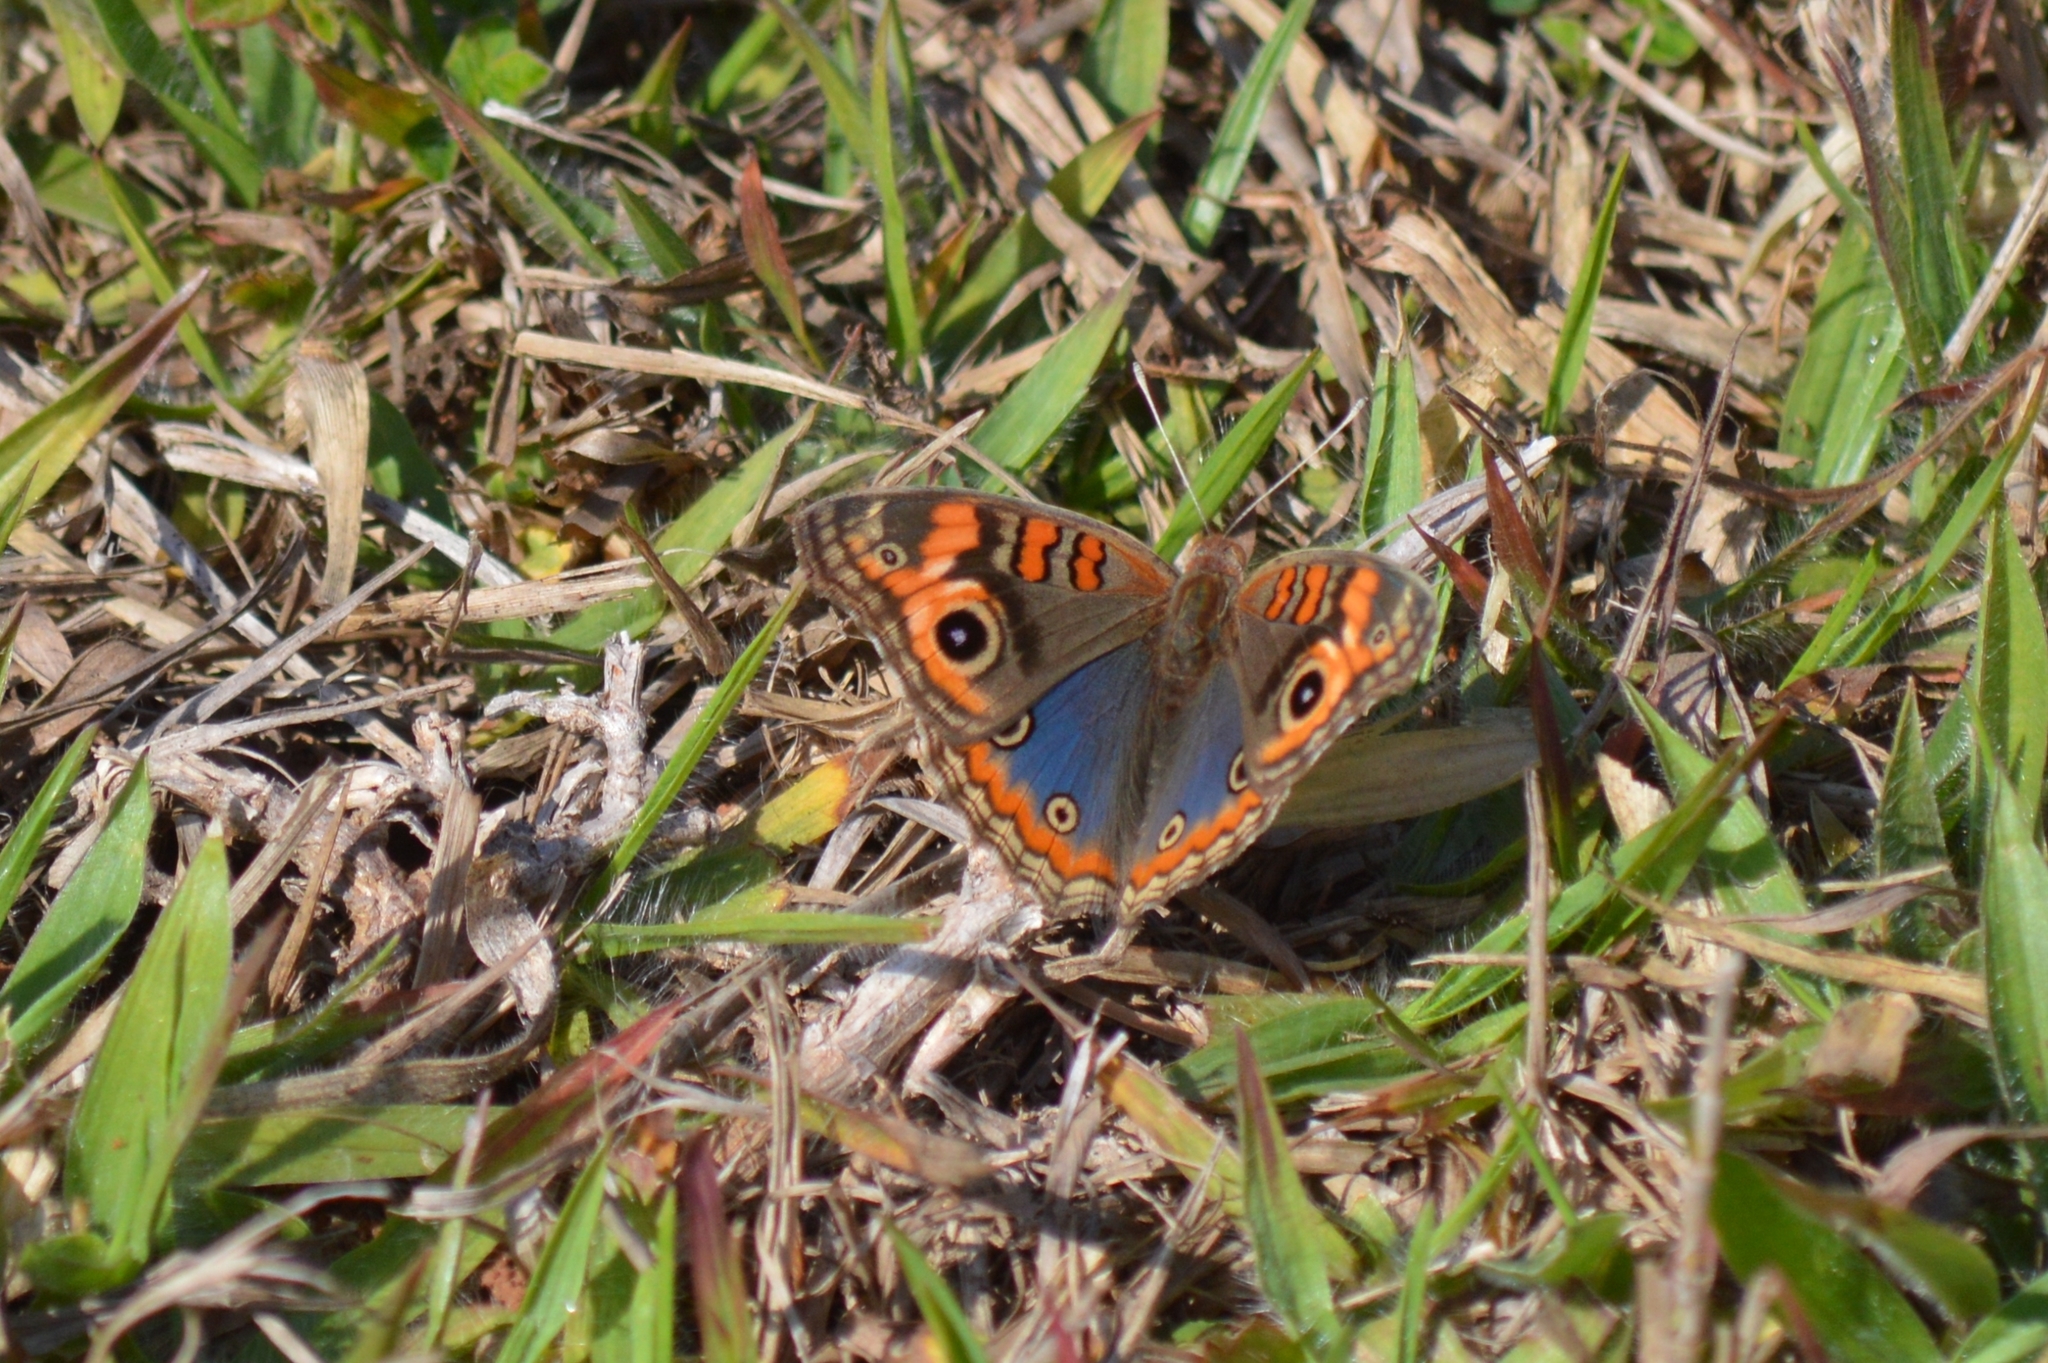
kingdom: Animalia
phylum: Arthropoda
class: Insecta
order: Lepidoptera
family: Nymphalidae
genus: Junonia
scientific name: Junonia evarete
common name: Black mangrove buckeye
